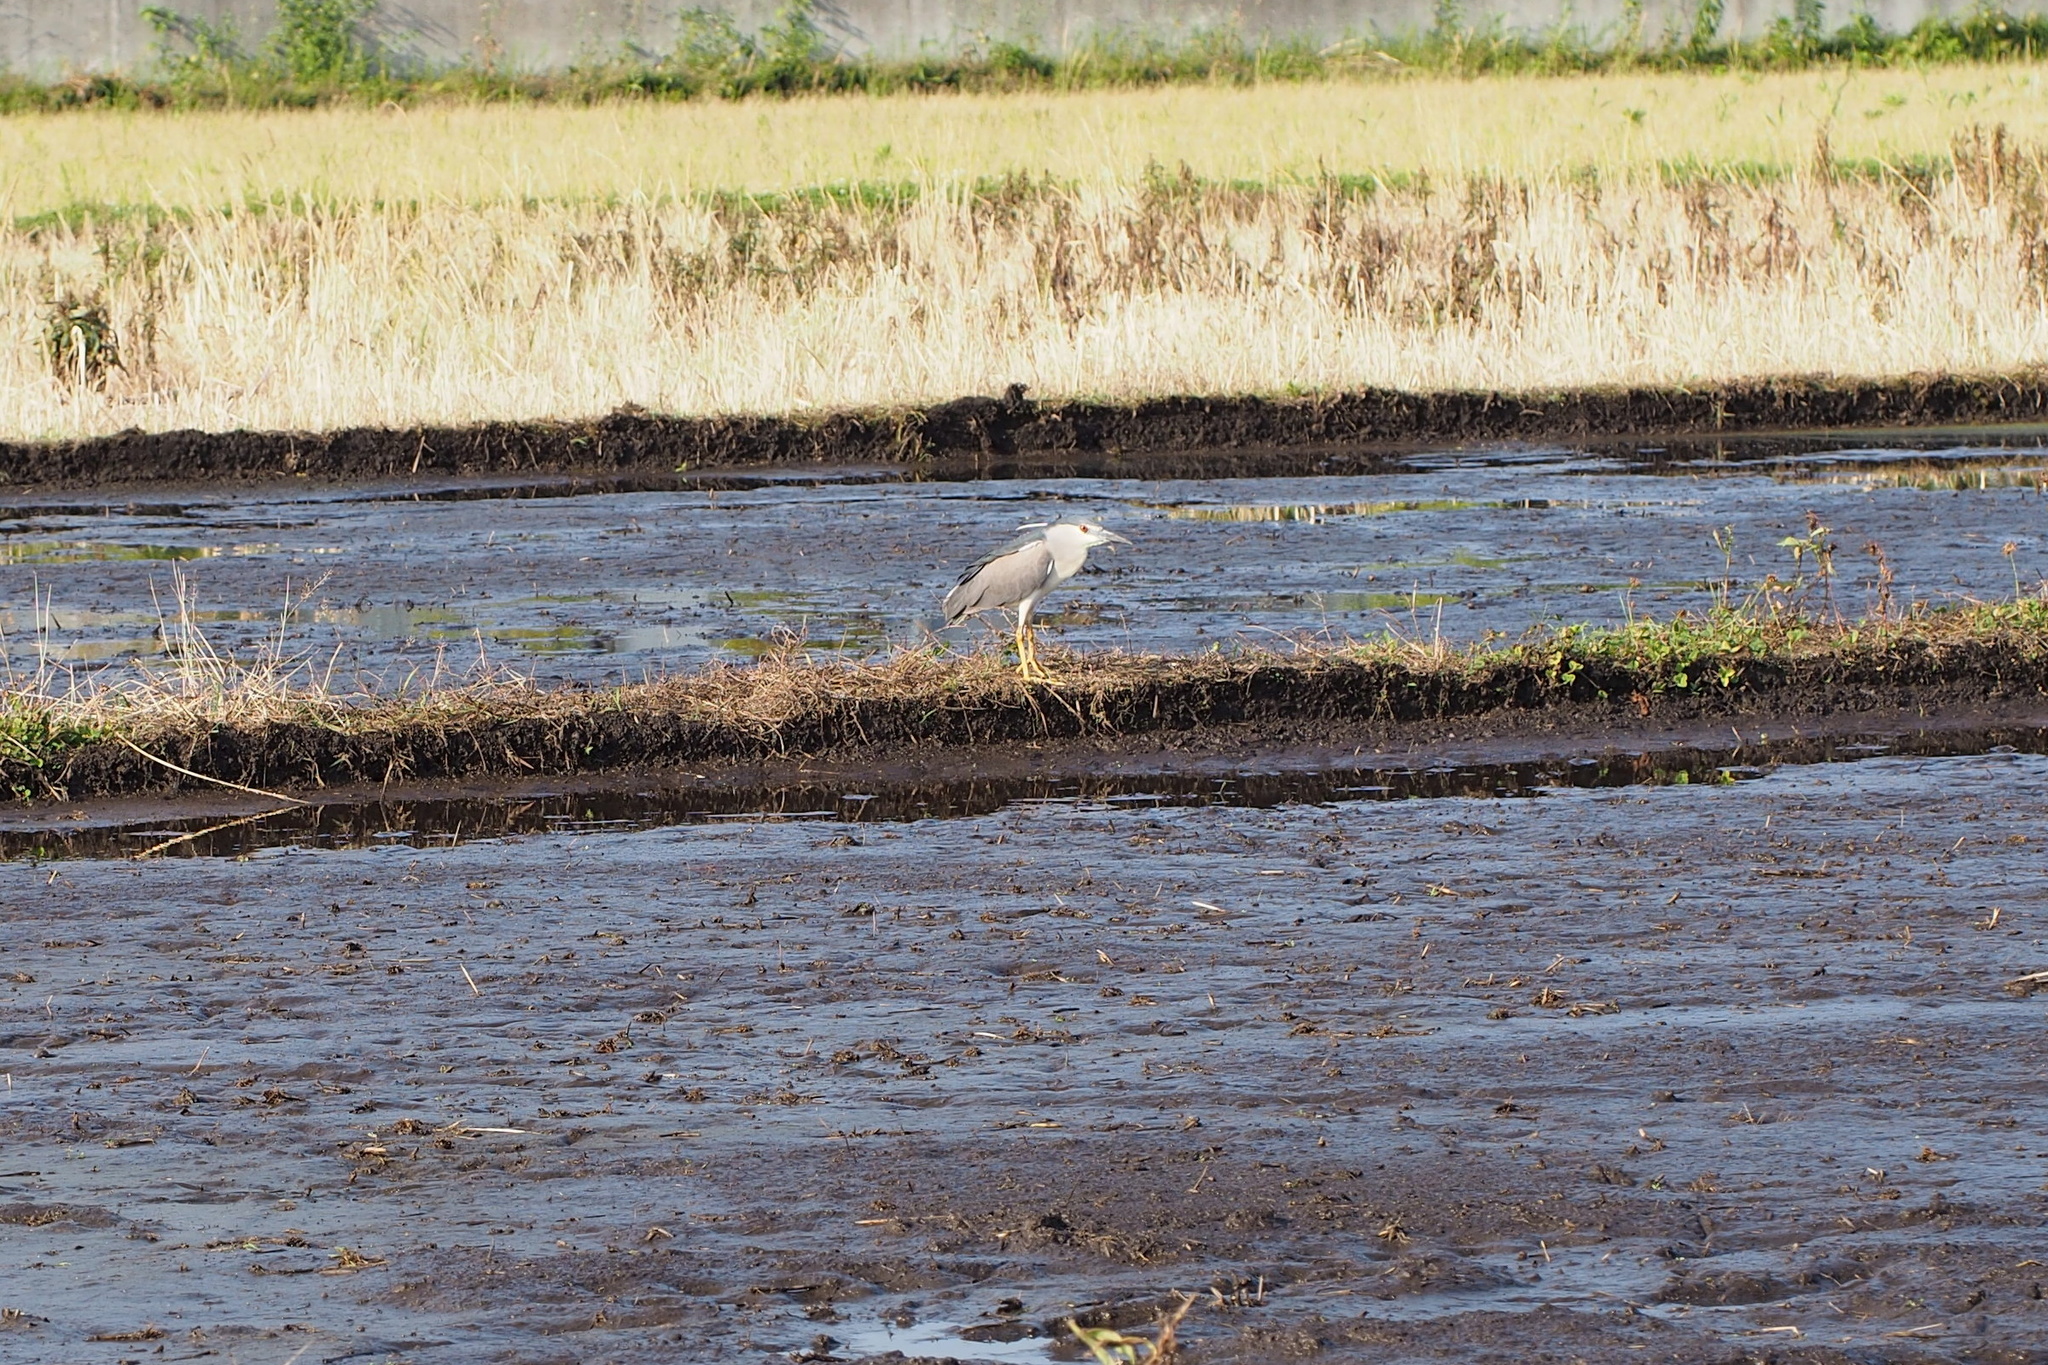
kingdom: Animalia
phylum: Chordata
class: Aves
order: Pelecaniformes
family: Ardeidae
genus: Nycticorax
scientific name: Nycticorax nycticorax
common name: Black-crowned night heron
